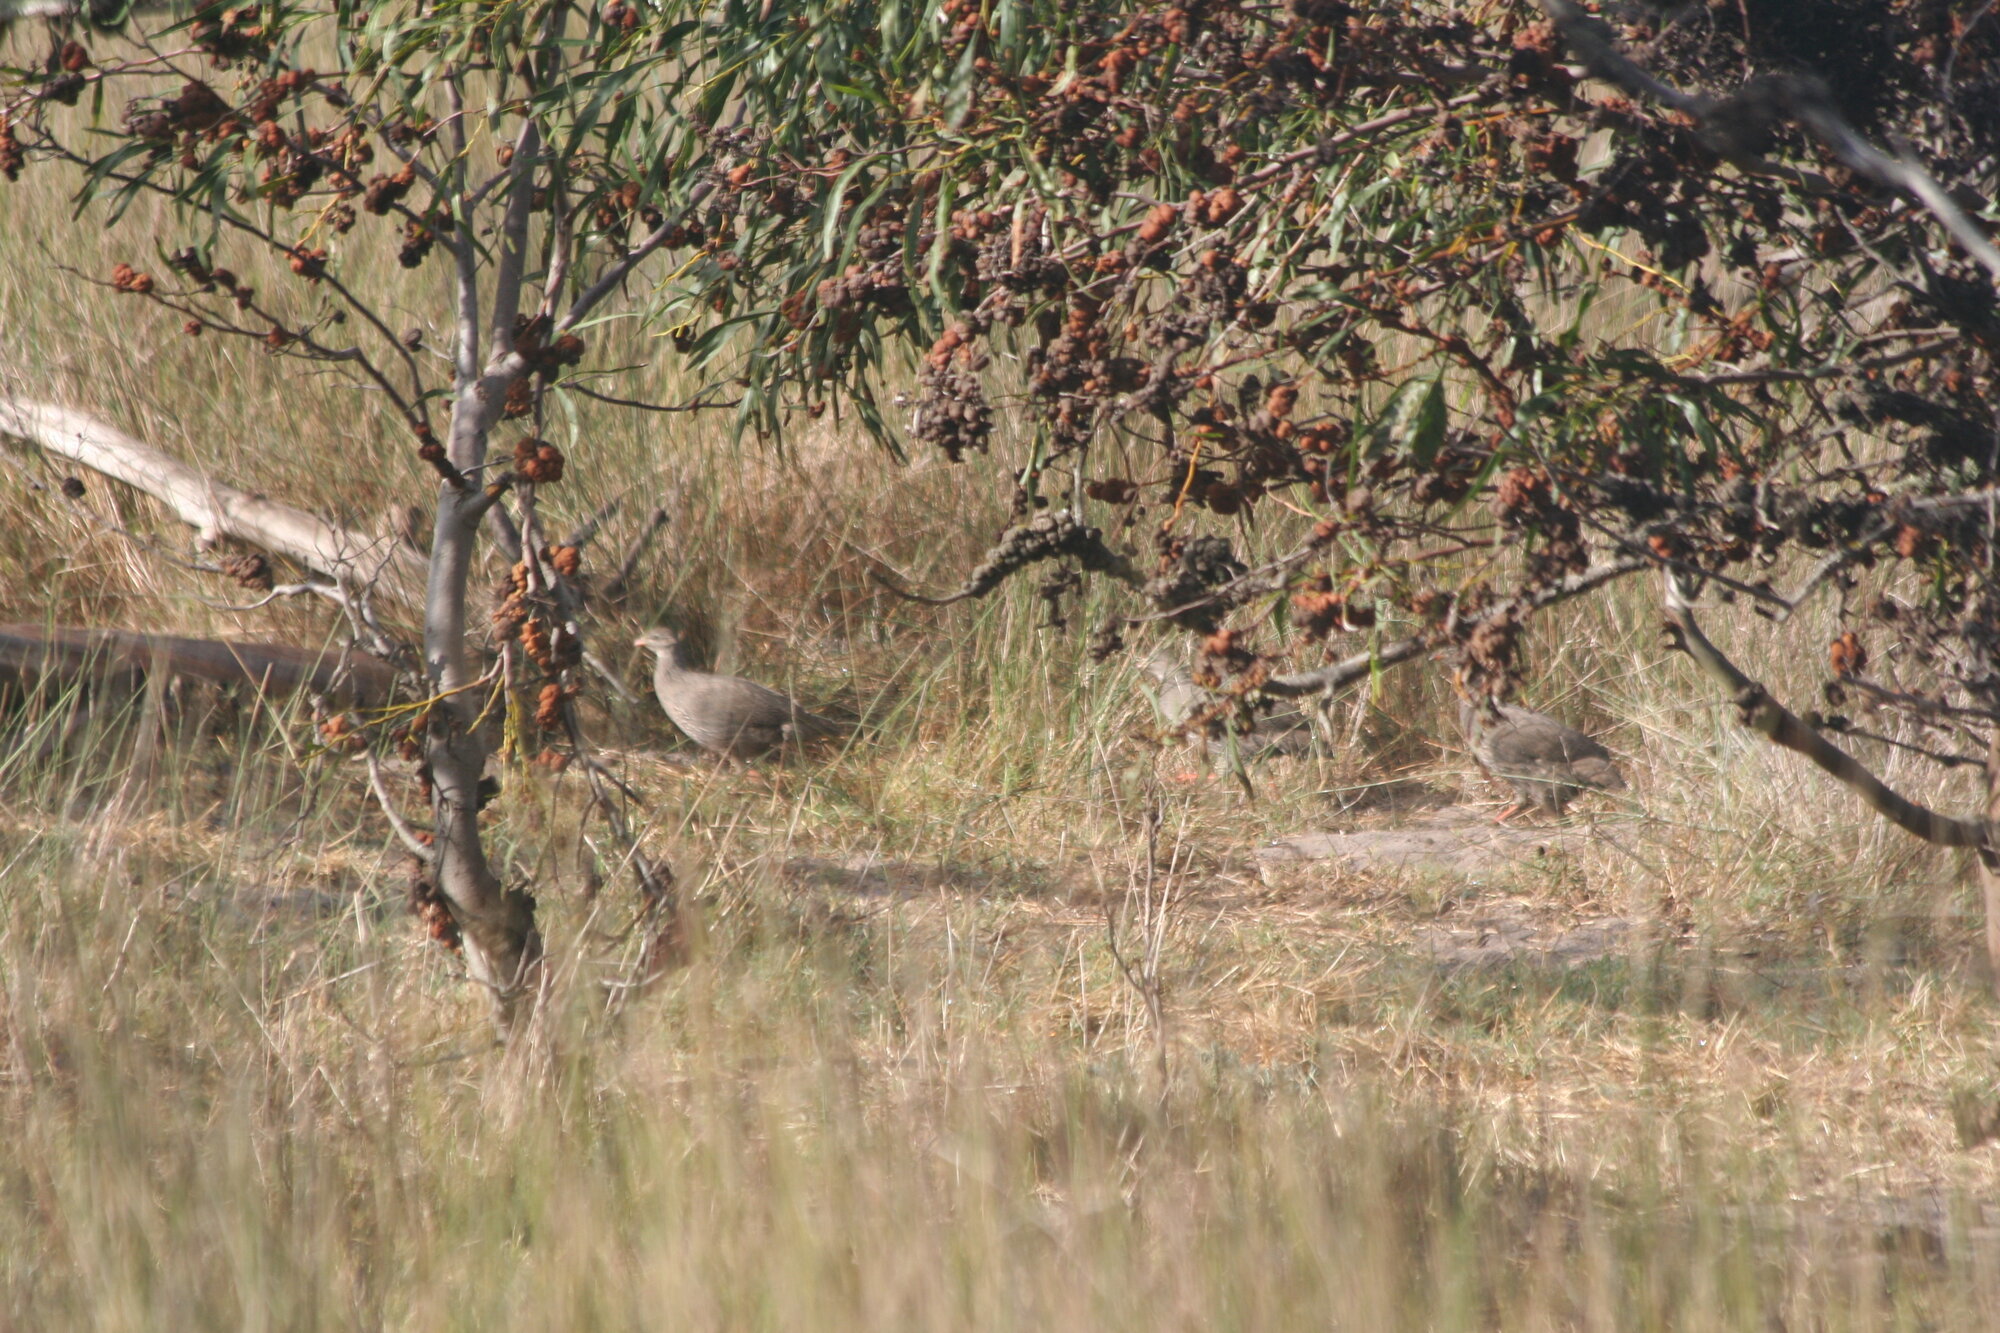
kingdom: Animalia
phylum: Chordata
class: Aves
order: Galliformes
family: Phasianidae
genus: Pternistis
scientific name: Pternistis capensis
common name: Cape spurfowl
